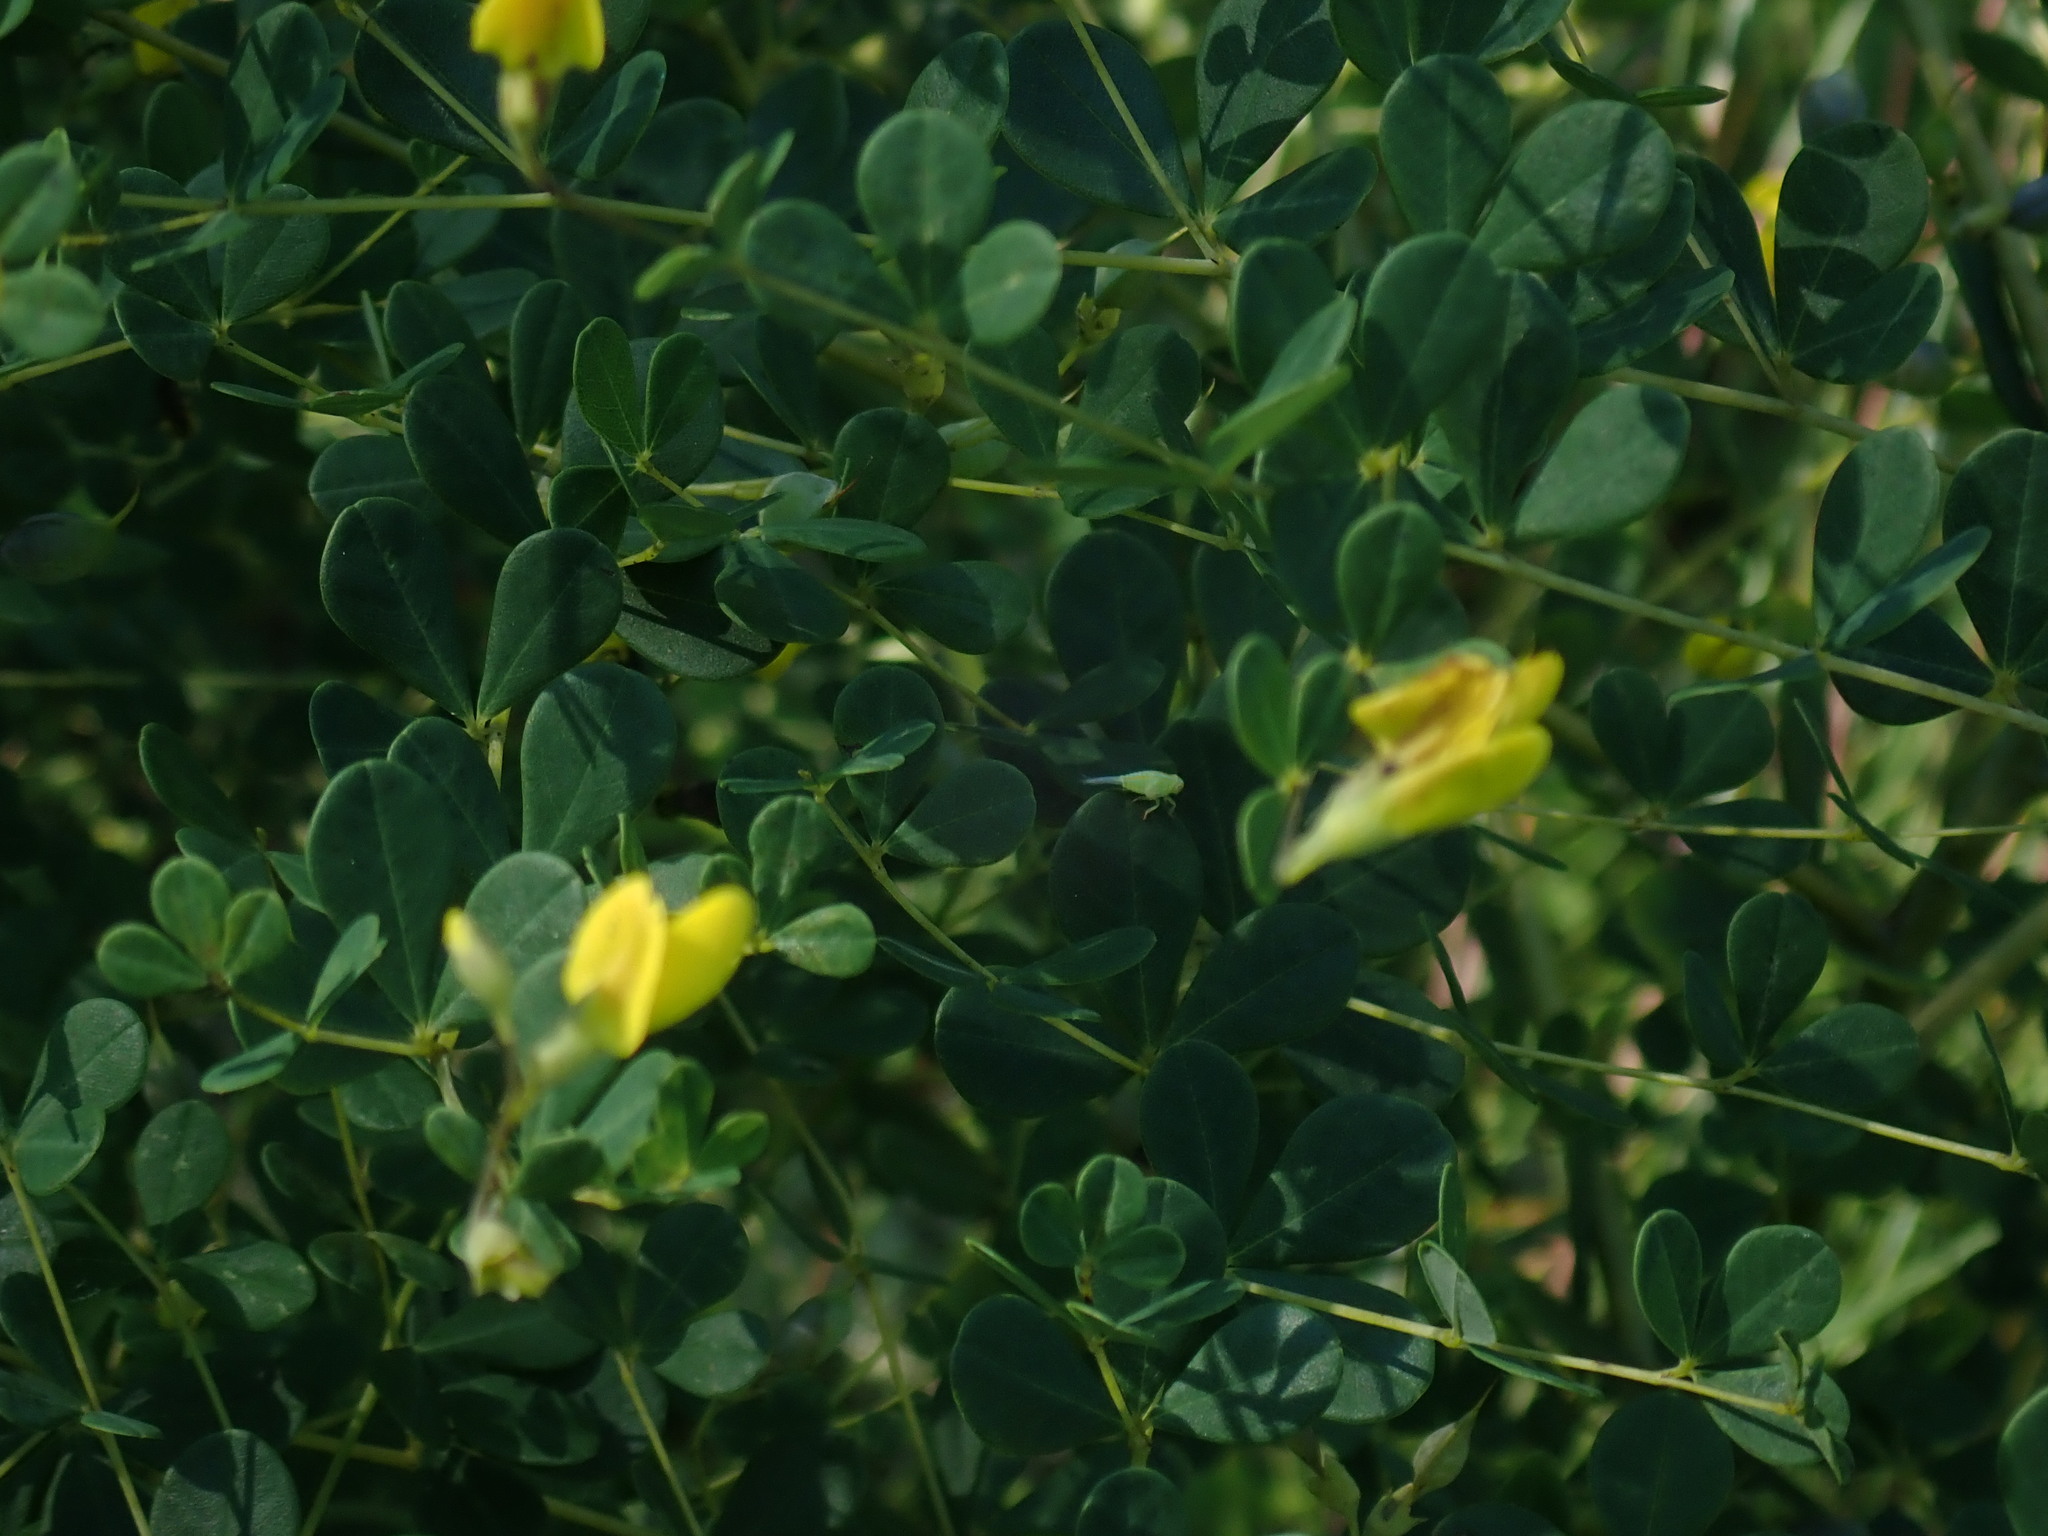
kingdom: Plantae
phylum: Tracheophyta
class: Magnoliopsida
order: Fabales
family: Fabaceae
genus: Baptisia
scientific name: Baptisia tinctoria
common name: Wild indigo
